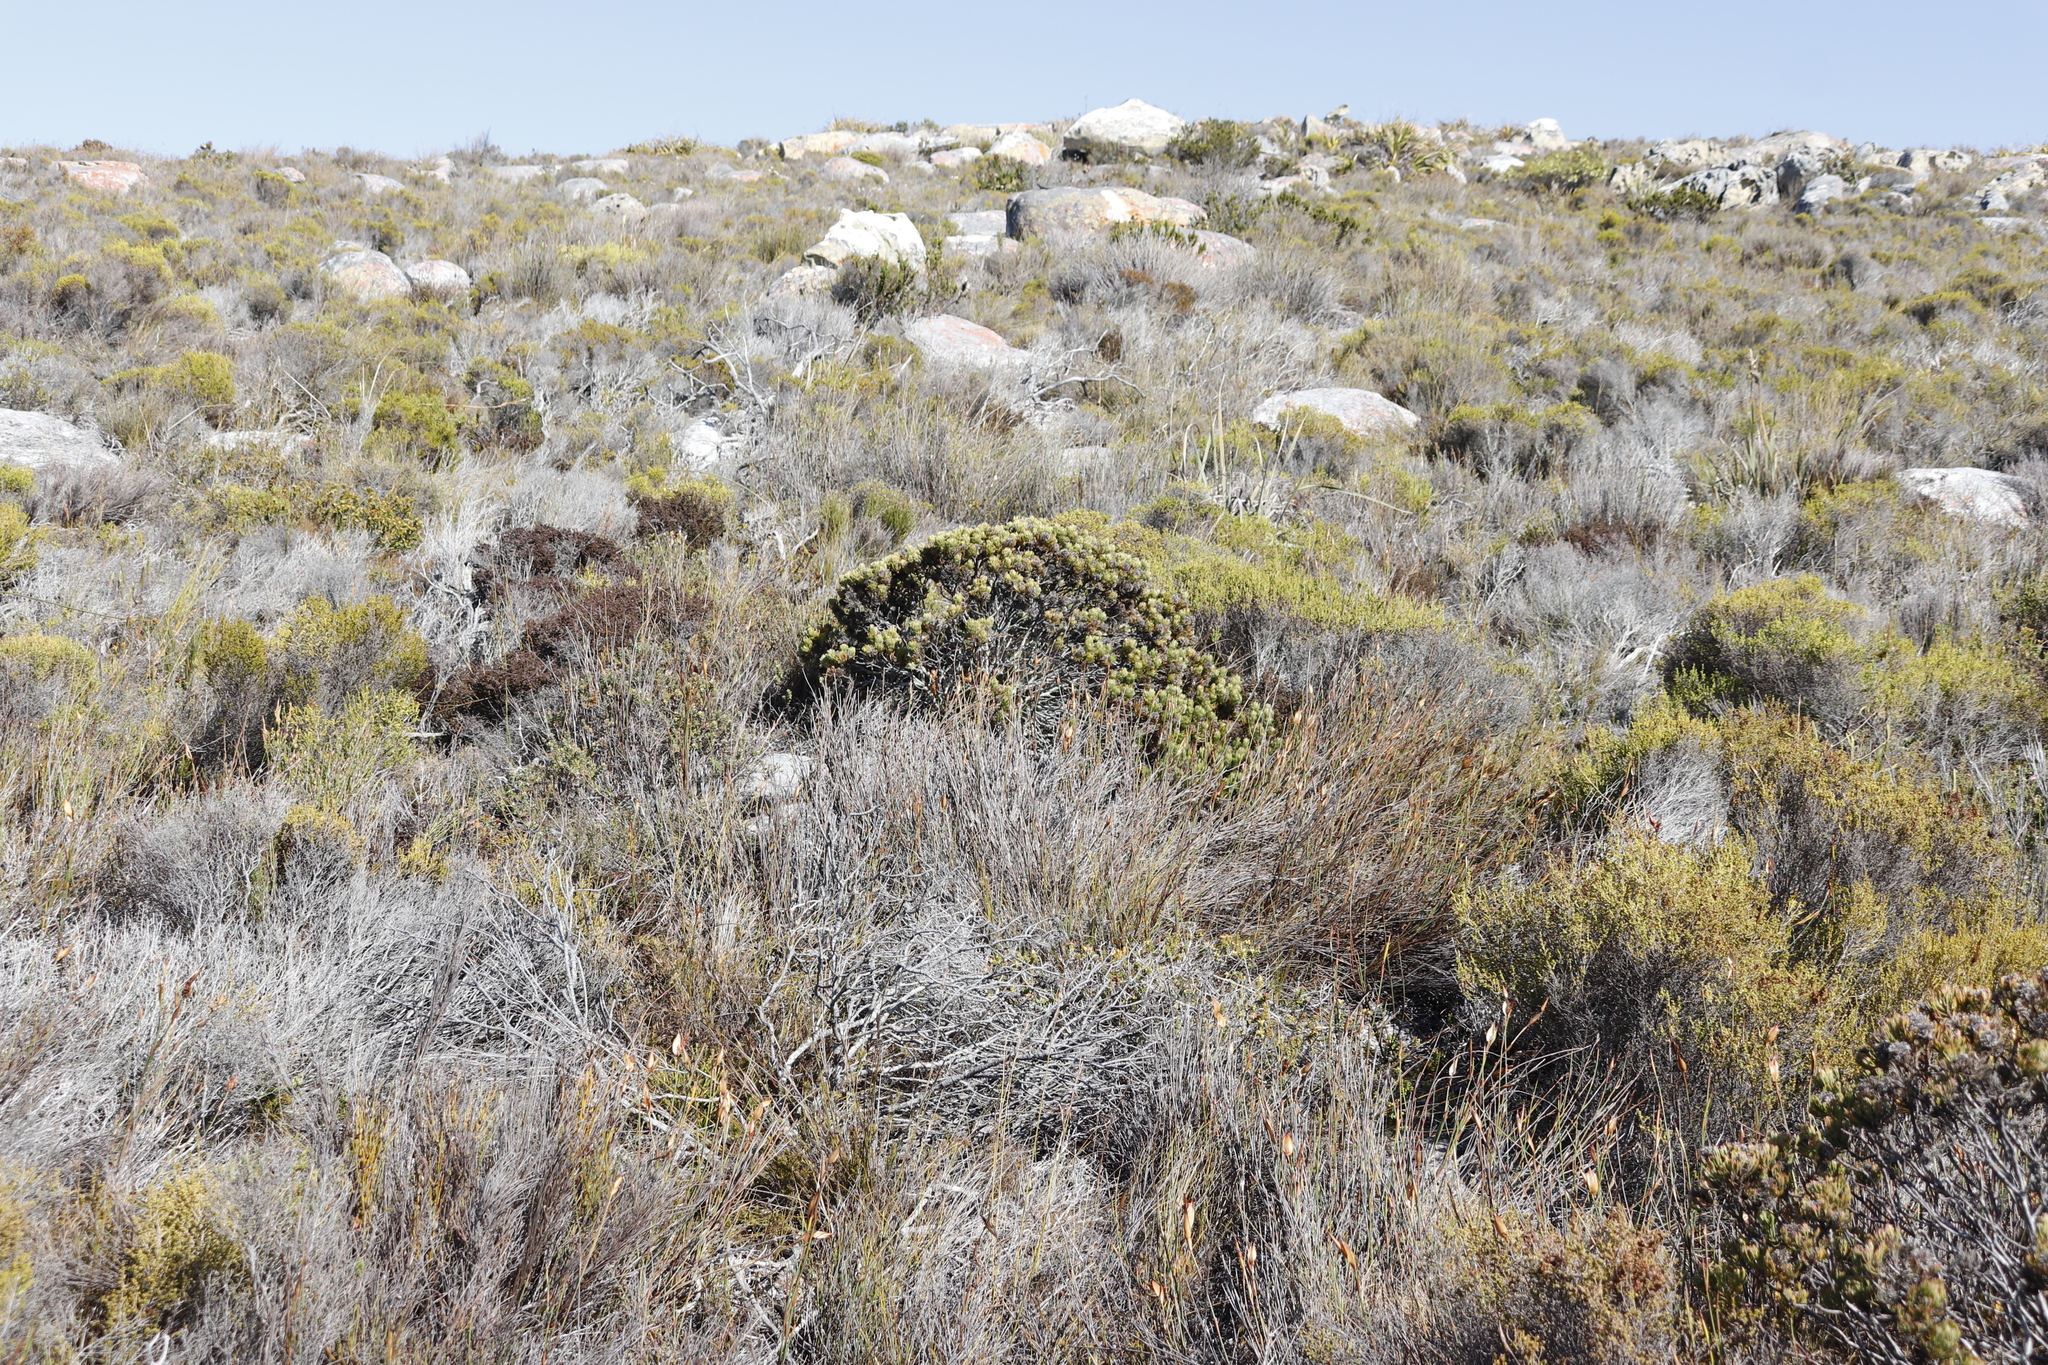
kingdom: Plantae
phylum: Tracheophyta
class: Magnoliopsida
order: Proteales
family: Proteaceae
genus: Serruria
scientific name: Serruria villosa
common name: Golden spiderhead
